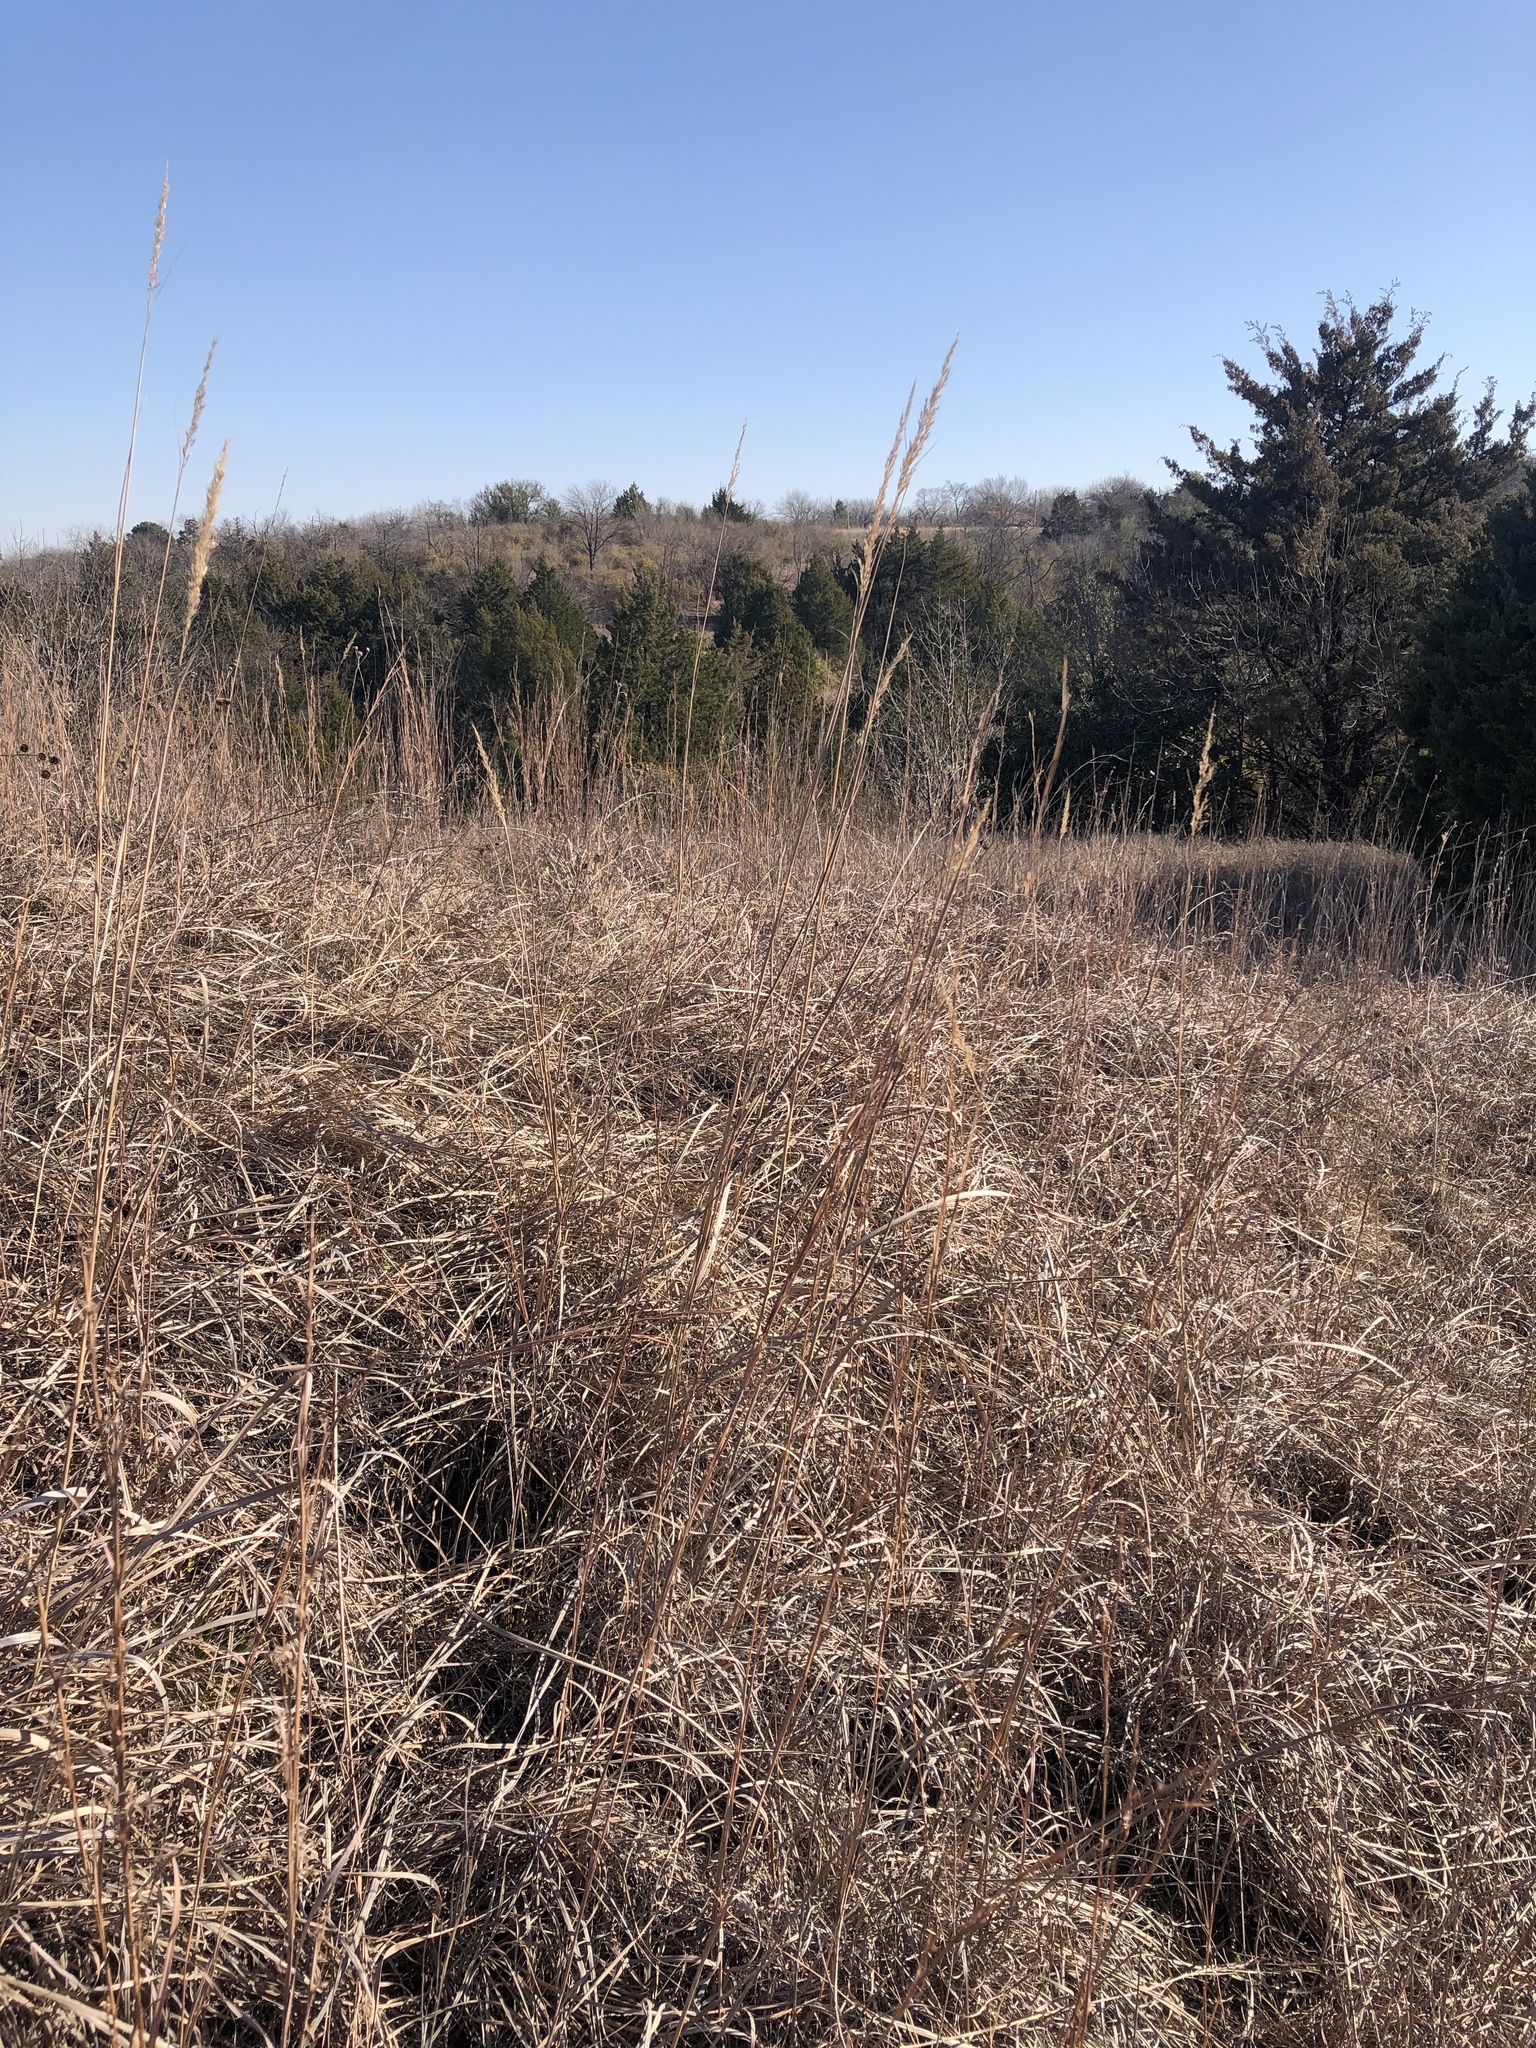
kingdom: Plantae
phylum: Tracheophyta
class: Liliopsida
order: Poales
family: Poaceae
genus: Sorghastrum
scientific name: Sorghastrum nutans
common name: Indian grass
